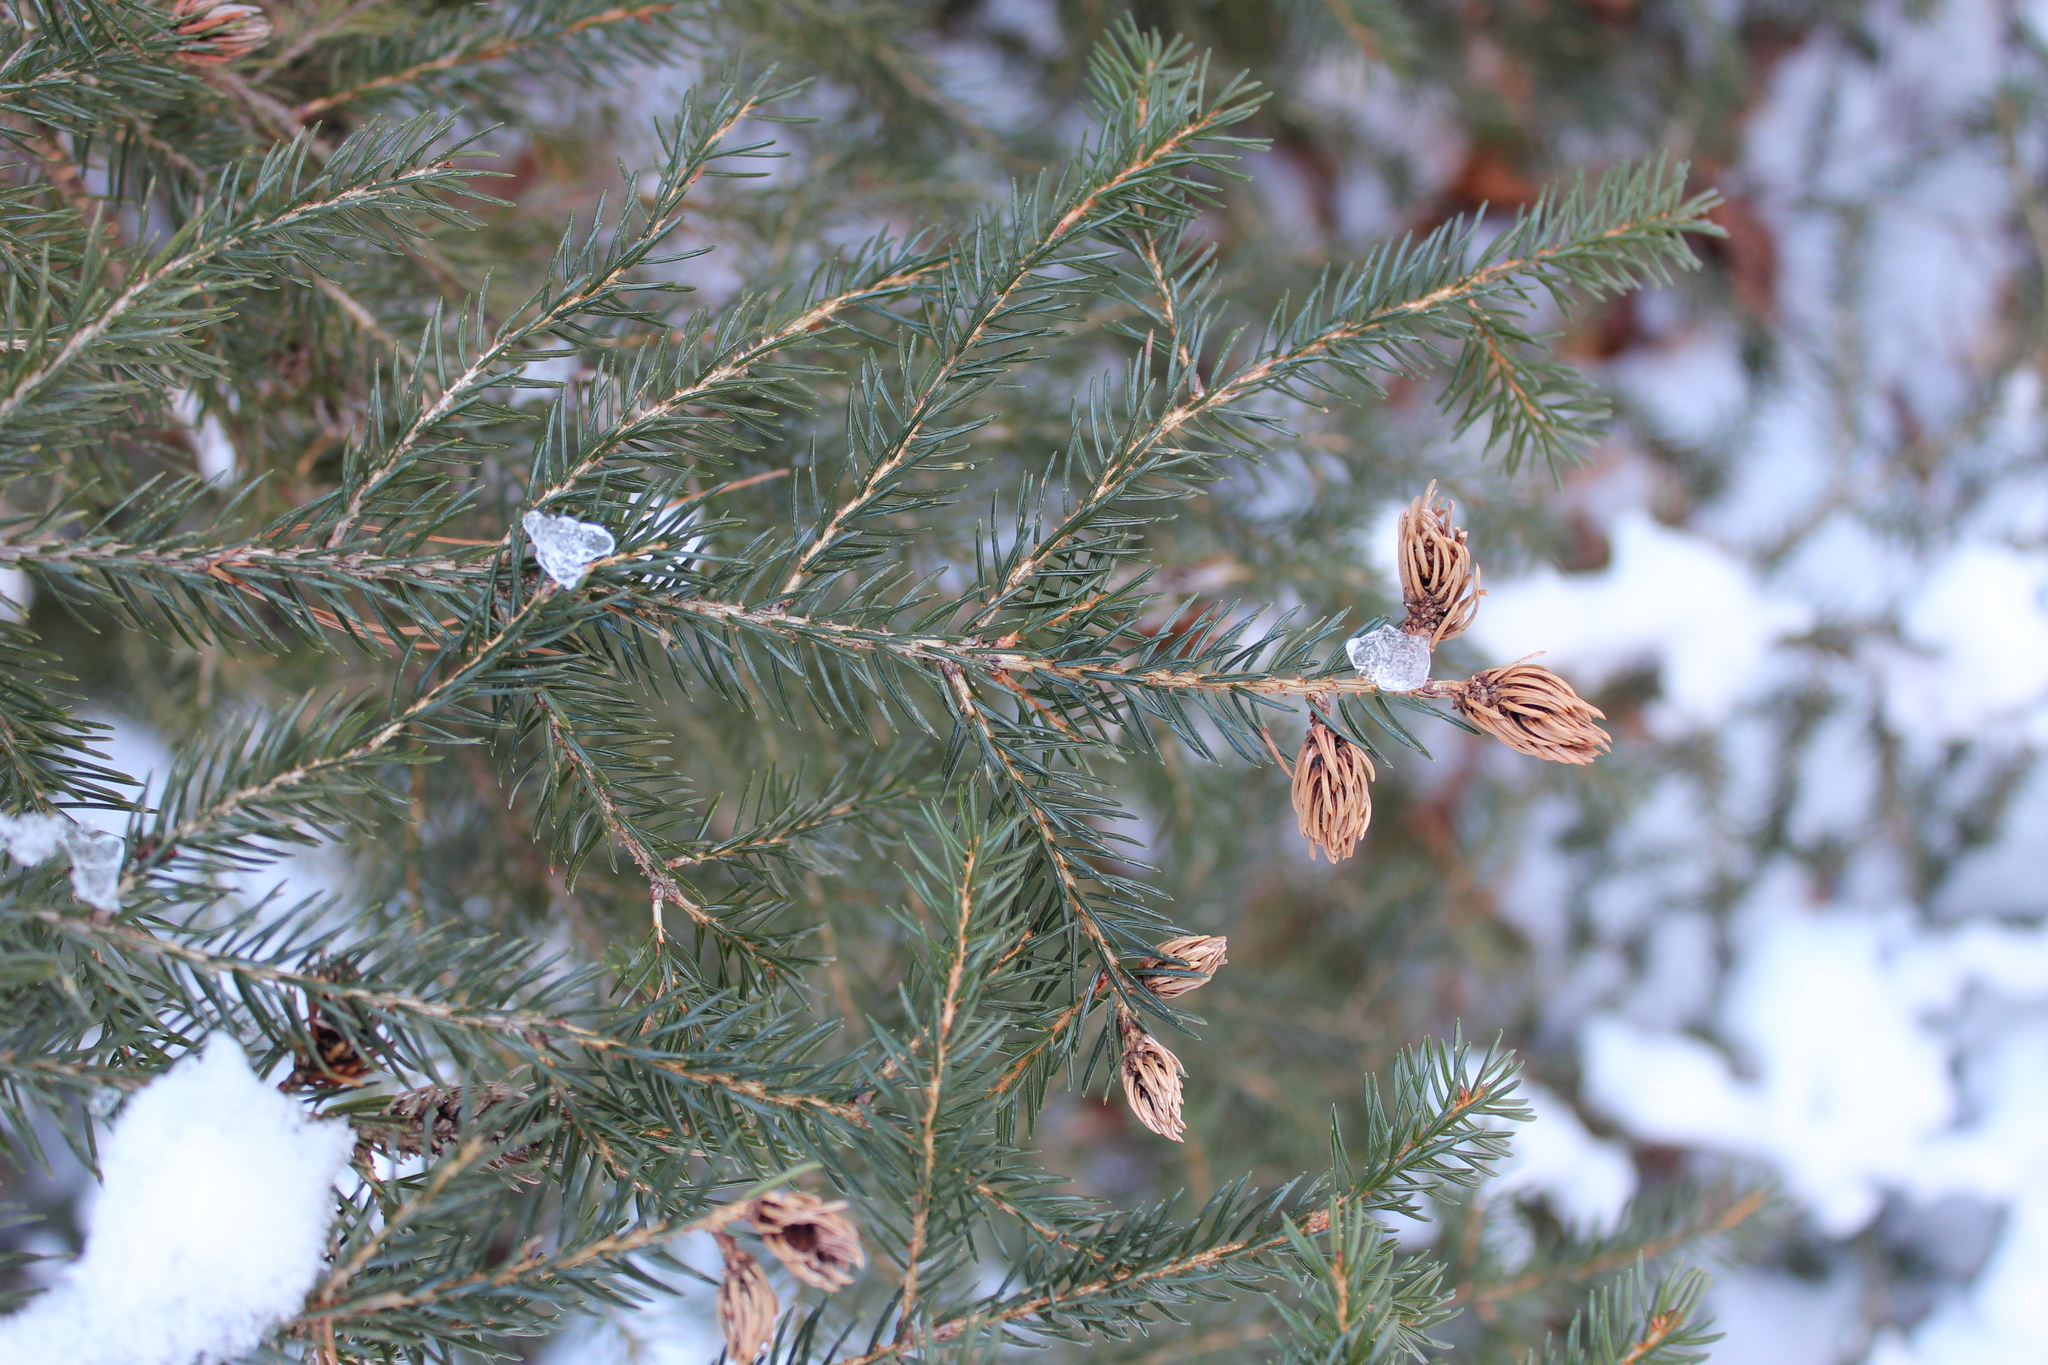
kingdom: Plantae
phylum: Tracheophyta
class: Pinopsida
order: Pinales
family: Pinaceae
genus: Picea
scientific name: Picea rubens
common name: Red spruce
